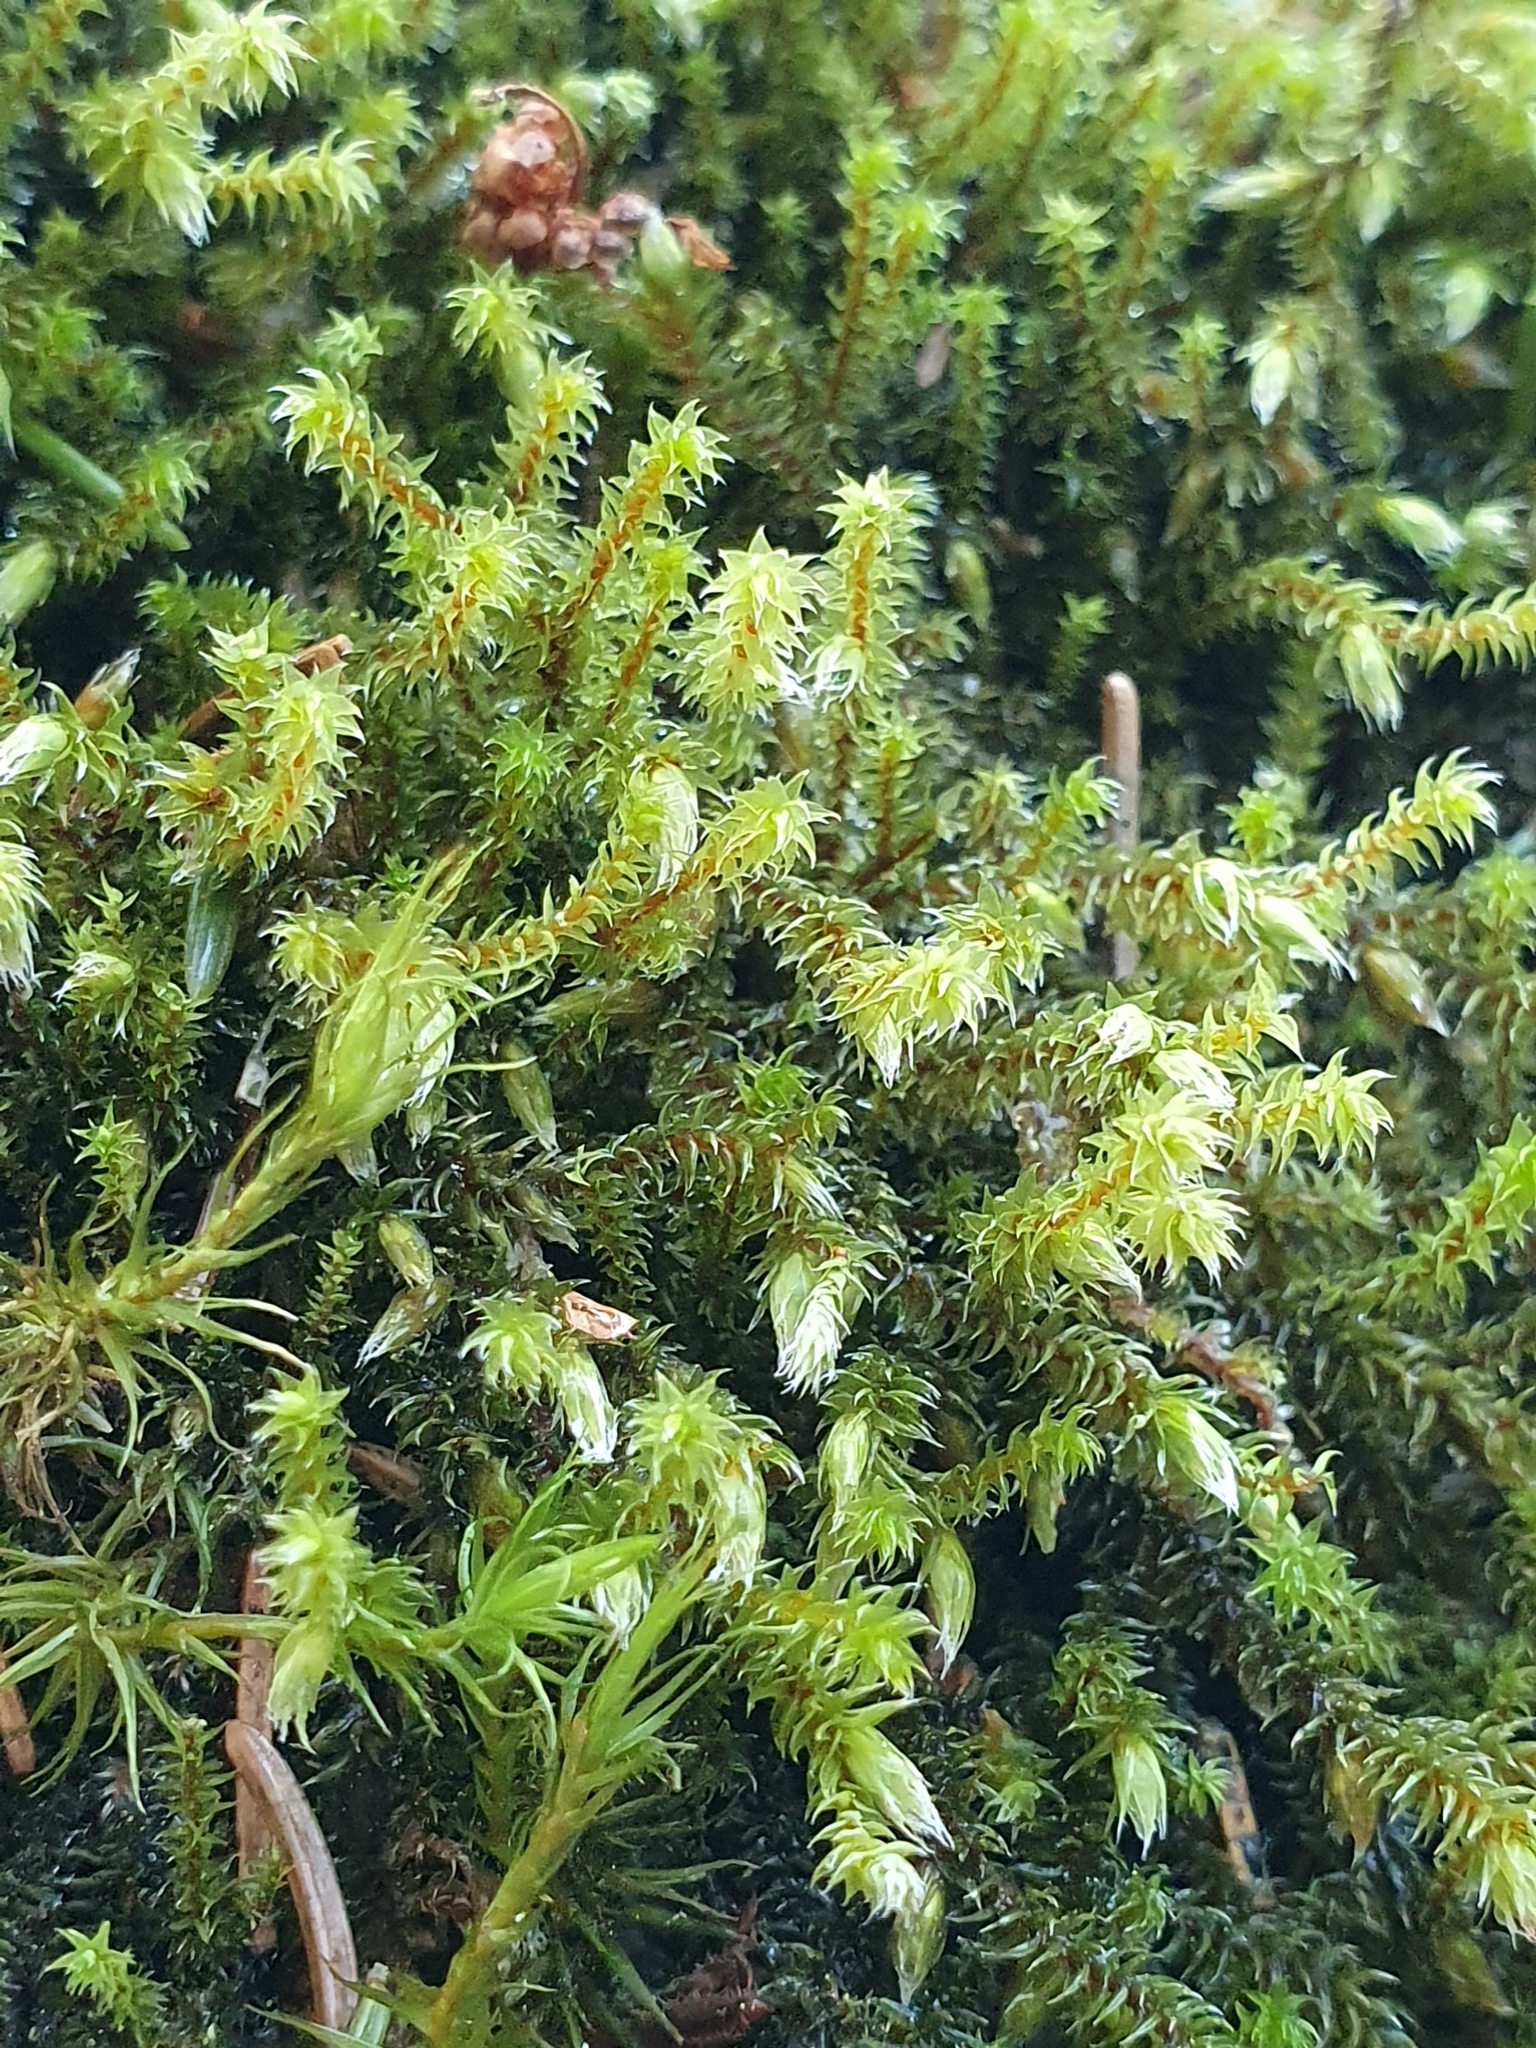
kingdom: Plantae
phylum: Bryophyta
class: Bryopsida
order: Hedwigiales
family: Hedwigiaceae
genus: Hedwigia
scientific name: Hedwigia ciliata
